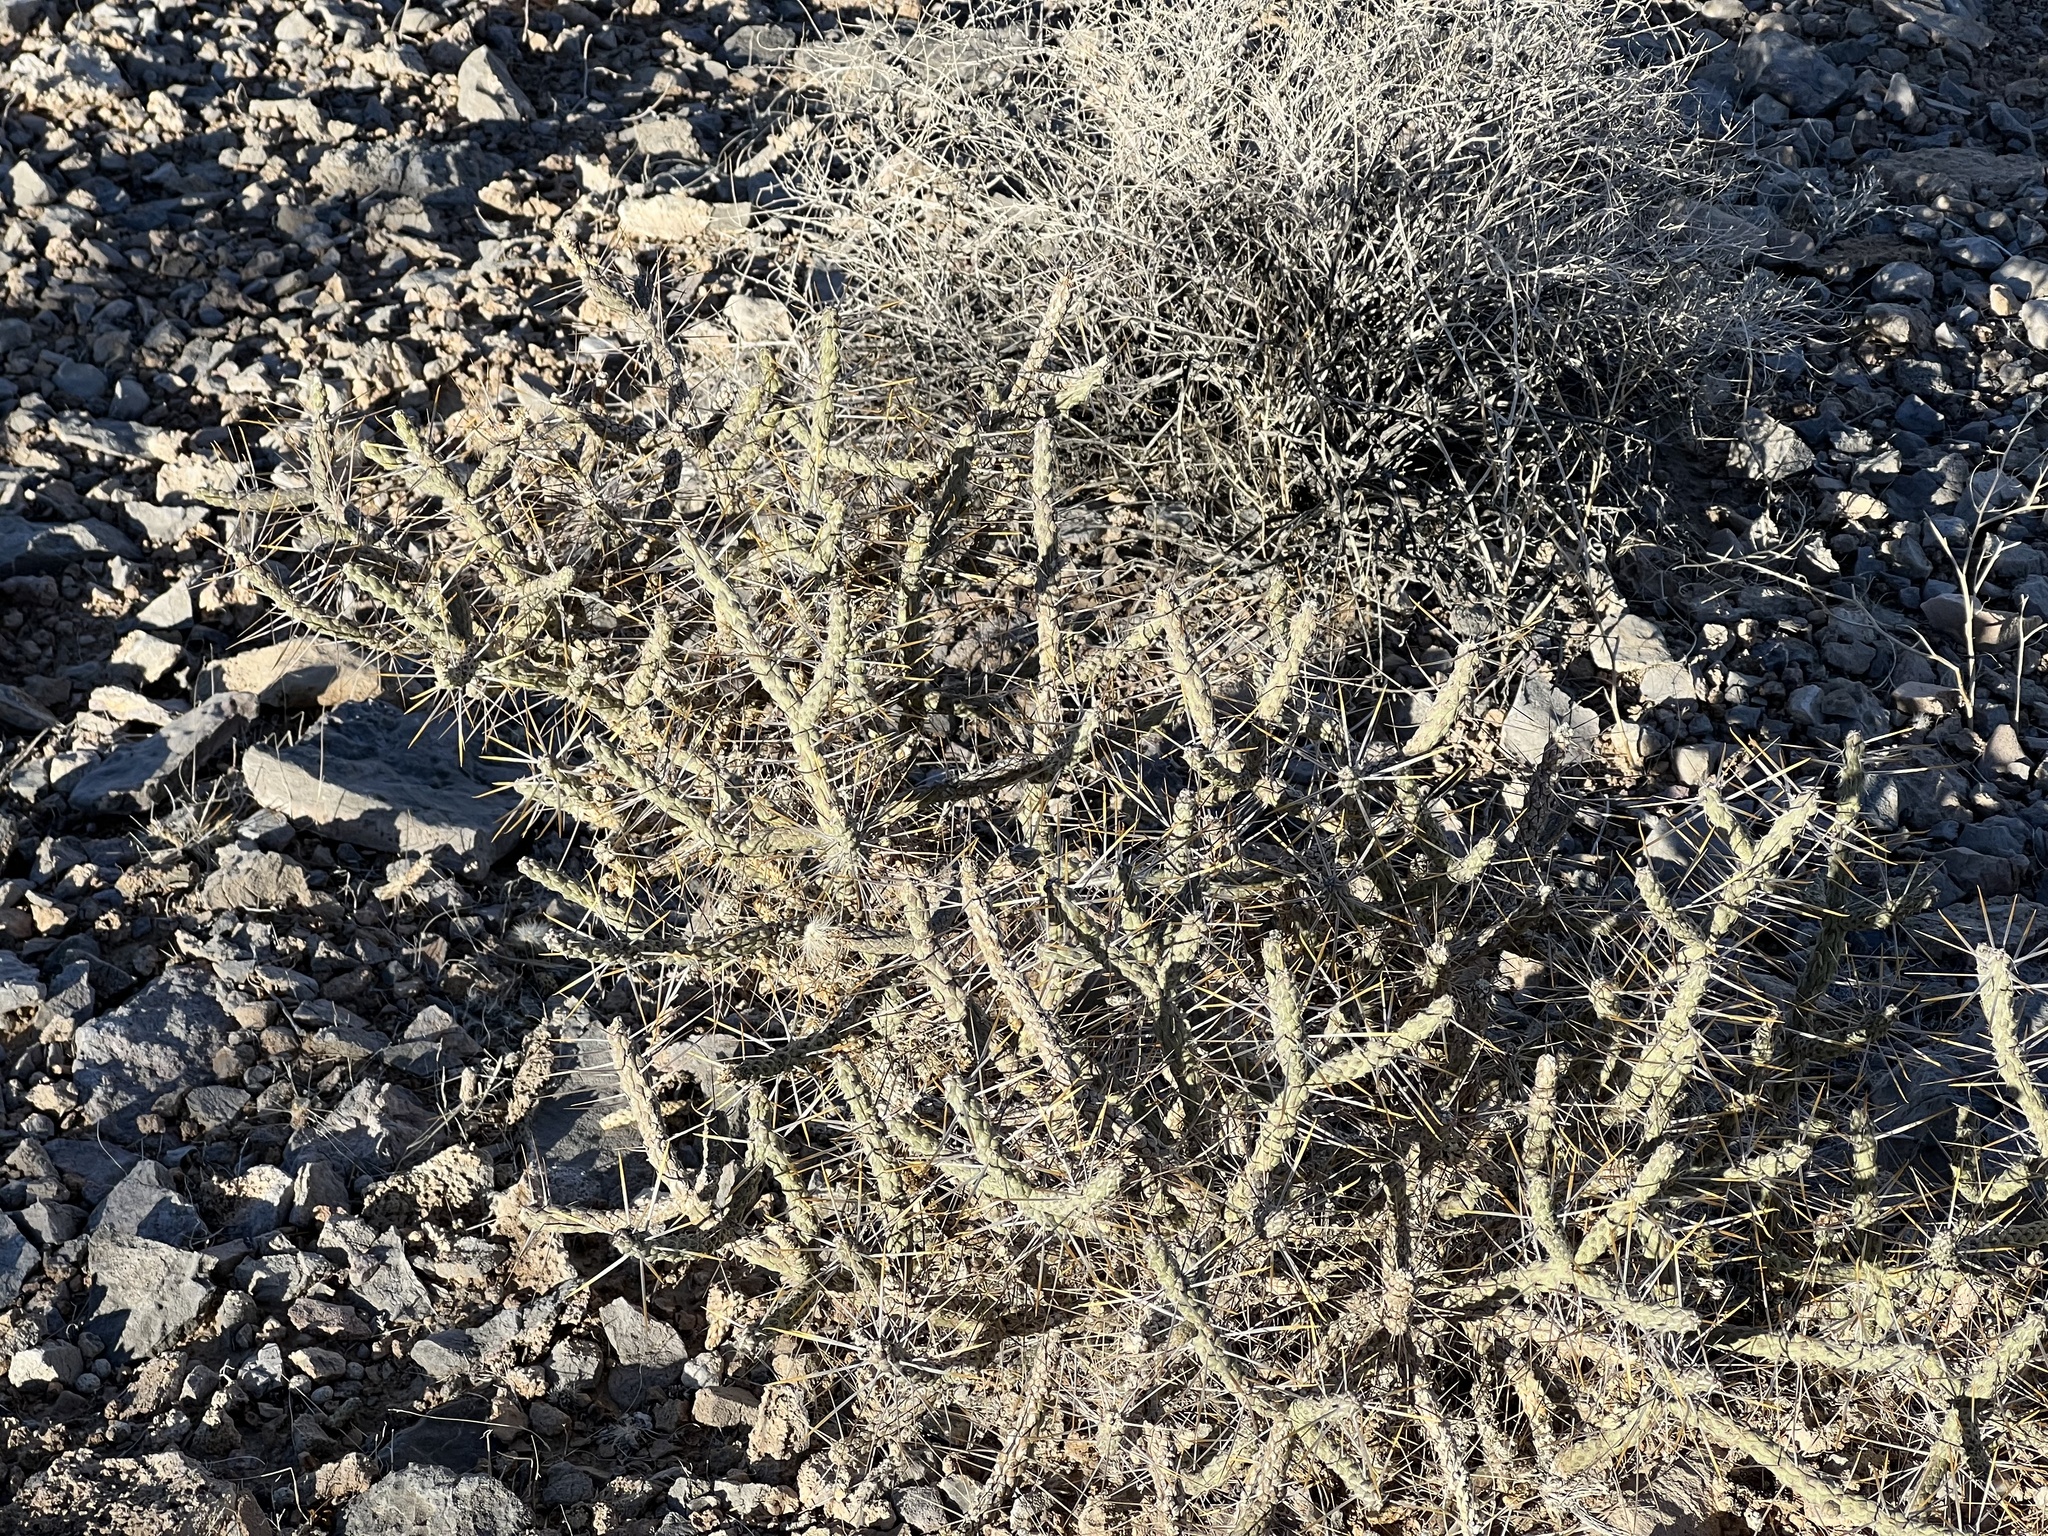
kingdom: Plantae
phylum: Tracheophyta
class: Magnoliopsida
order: Caryophyllales
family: Cactaceae
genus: Cylindropuntia
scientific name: Cylindropuntia ramosissima
